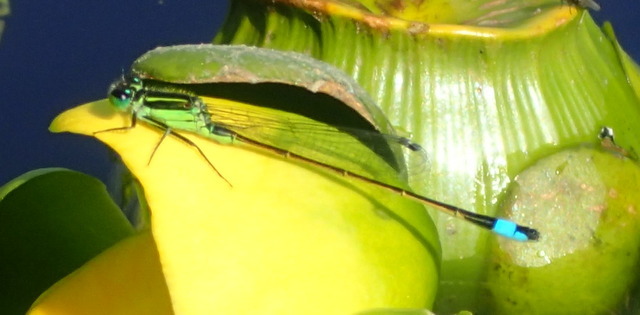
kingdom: Animalia
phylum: Arthropoda
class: Insecta
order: Odonata
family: Coenagrionidae
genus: Ischnura
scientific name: Ischnura ramburii
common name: Rambur's forktail
